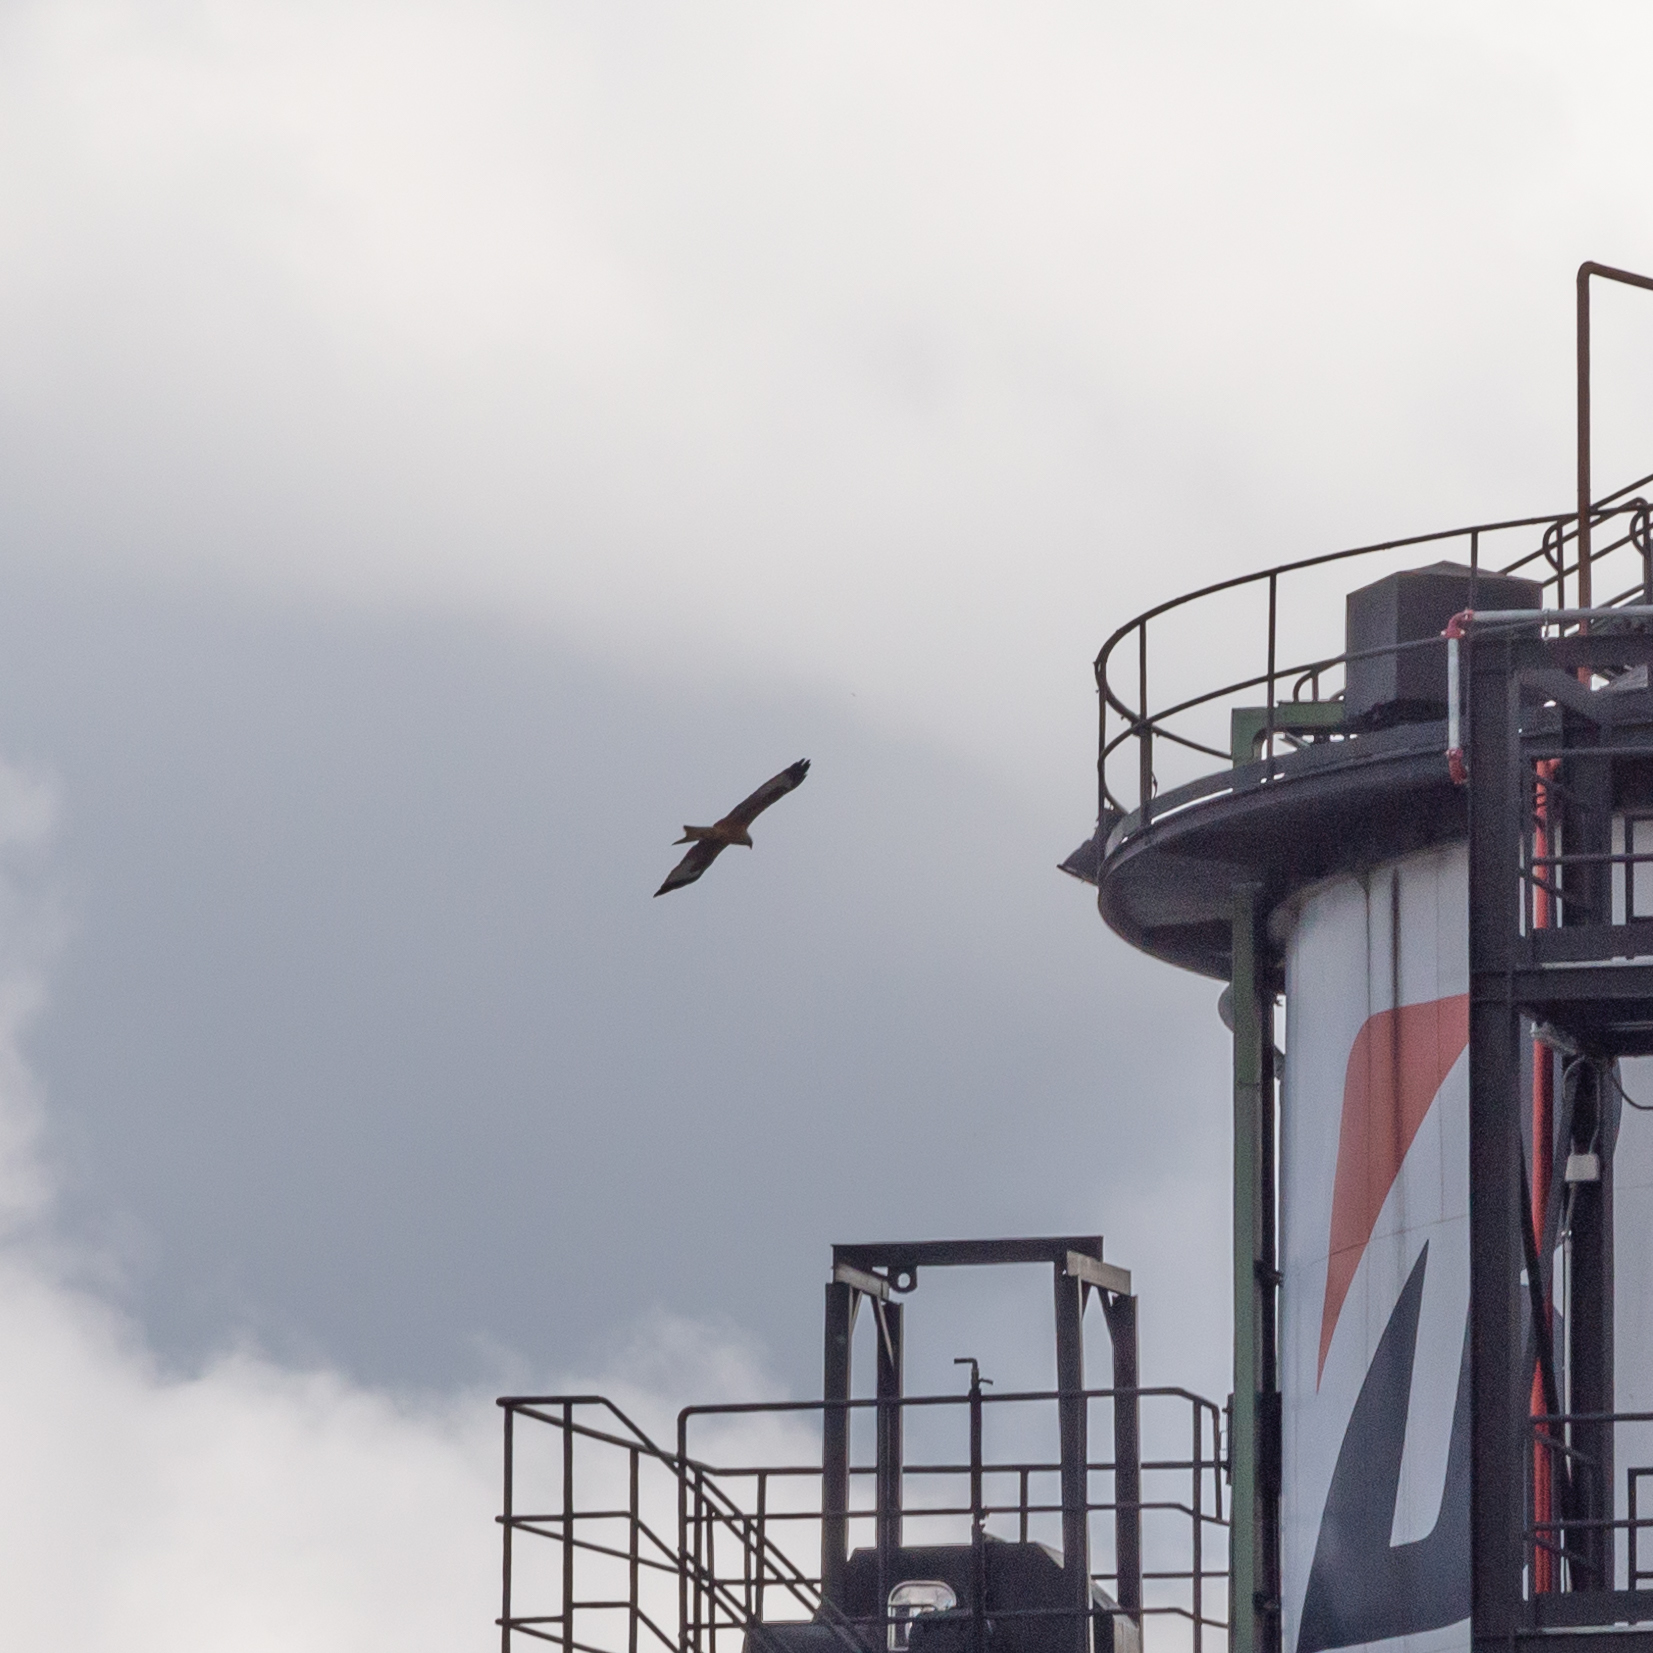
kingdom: Animalia
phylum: Chordata
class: Aves
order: Accipitriformes
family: Accipitridae
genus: Milvus
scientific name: Milvus milvus
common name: Red kite
